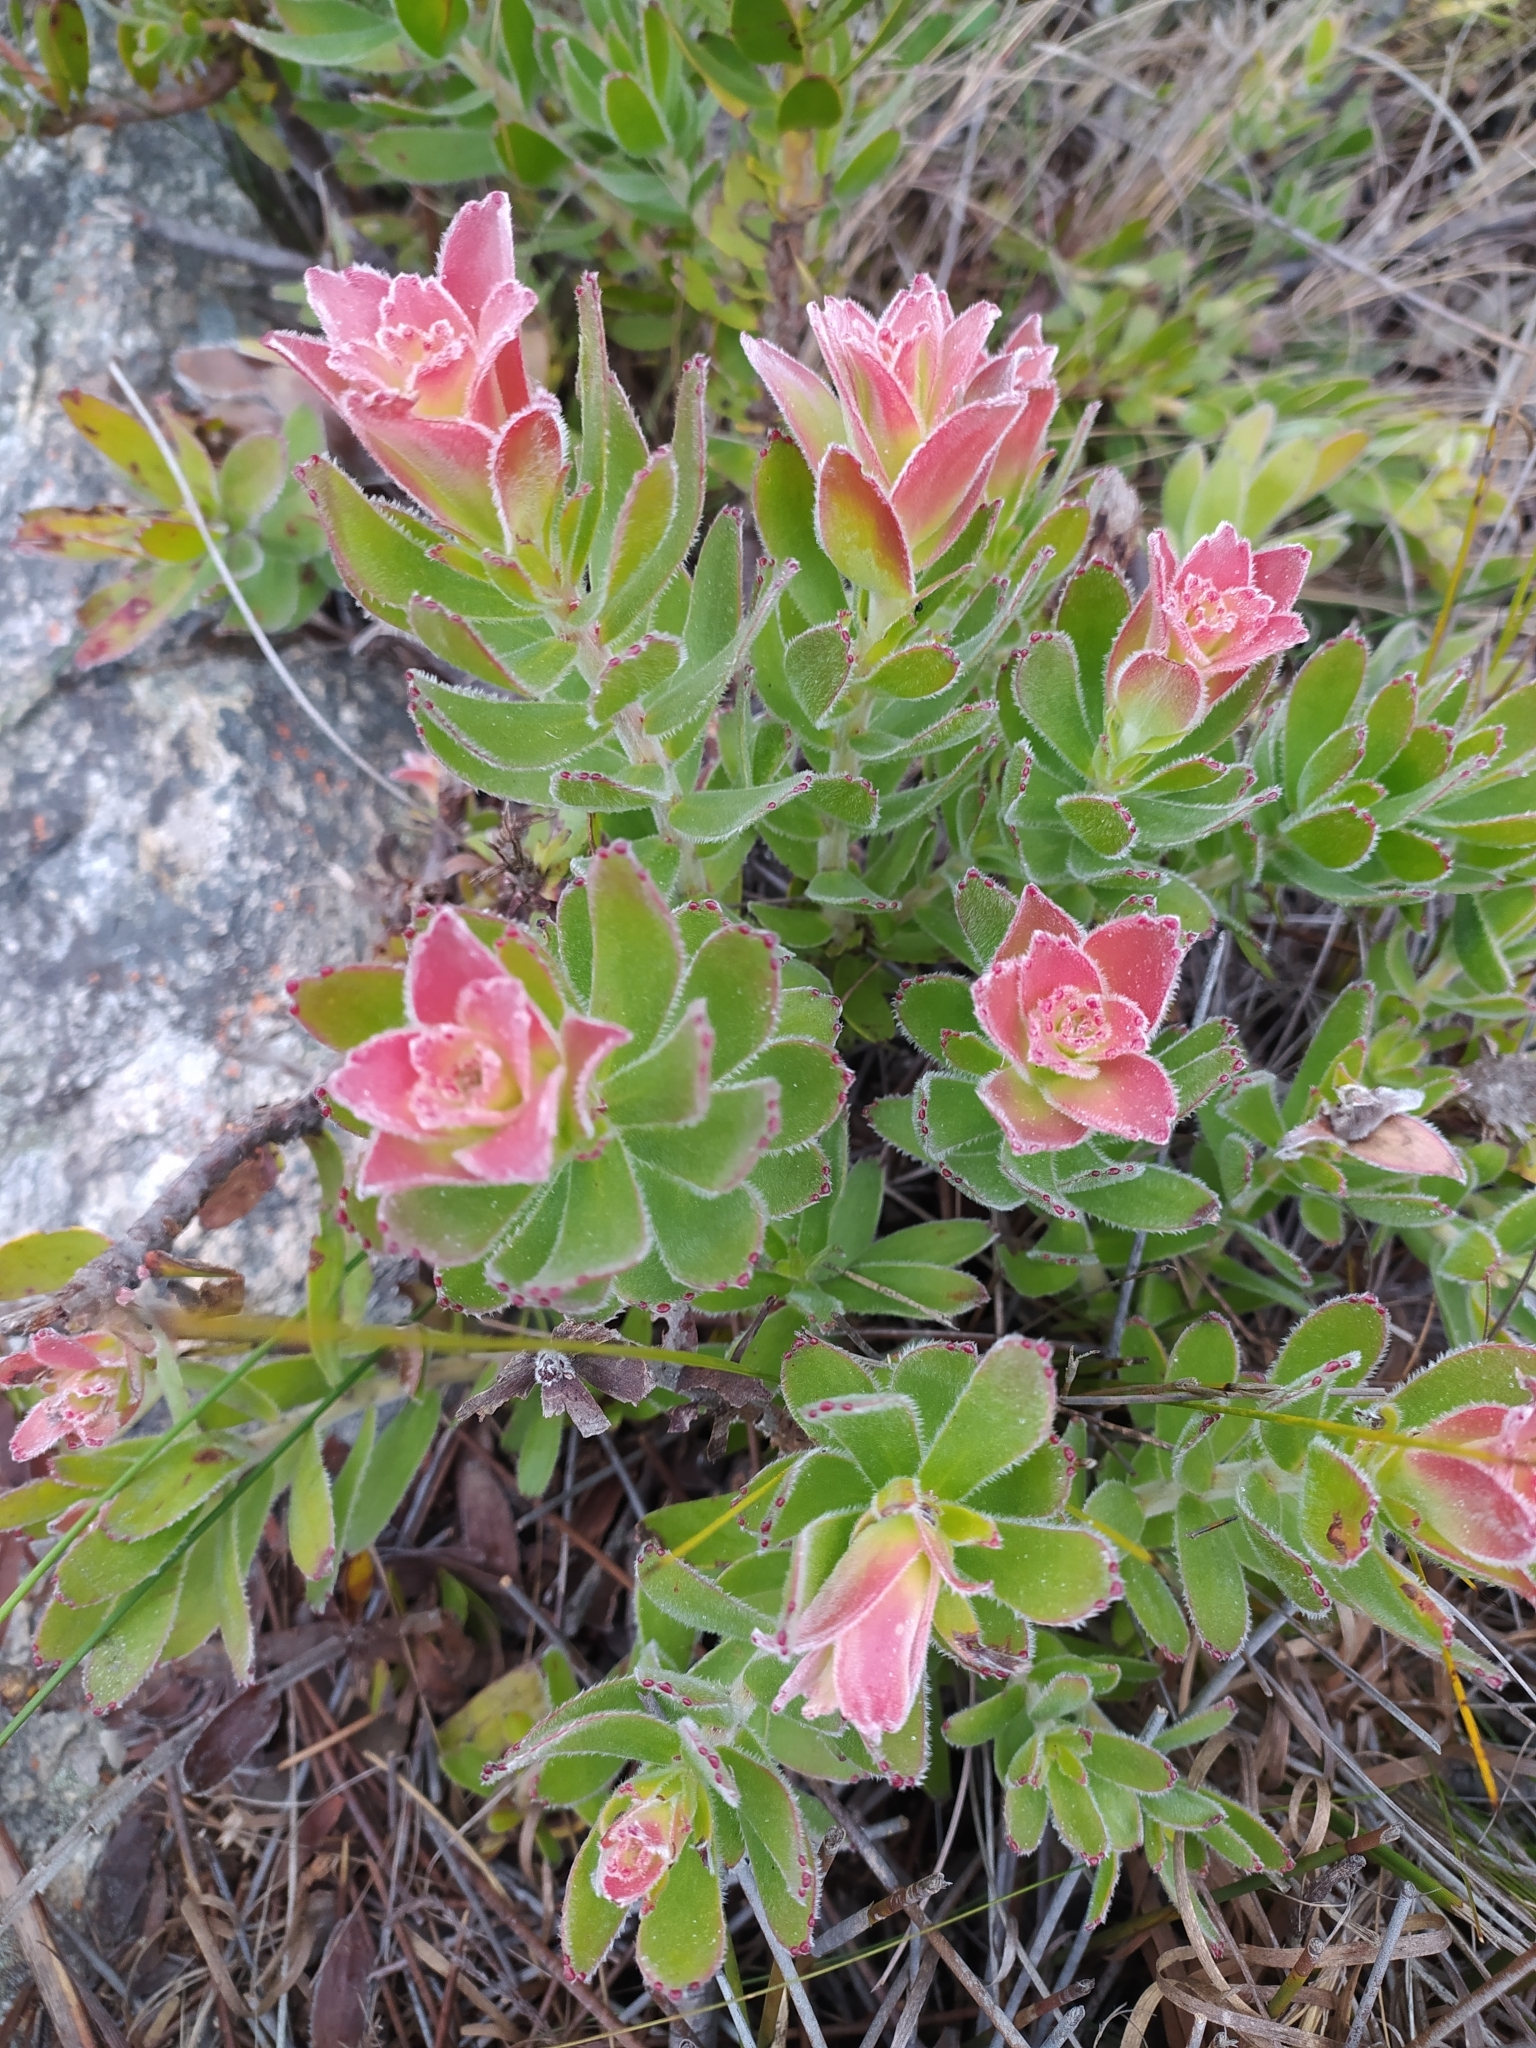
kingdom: Plantae
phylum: Tracheophyta
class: Magnoliopsida
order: Proteales
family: Proteaceae
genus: Mimetes
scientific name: Mimetes cucullatus
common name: Common pagoda
